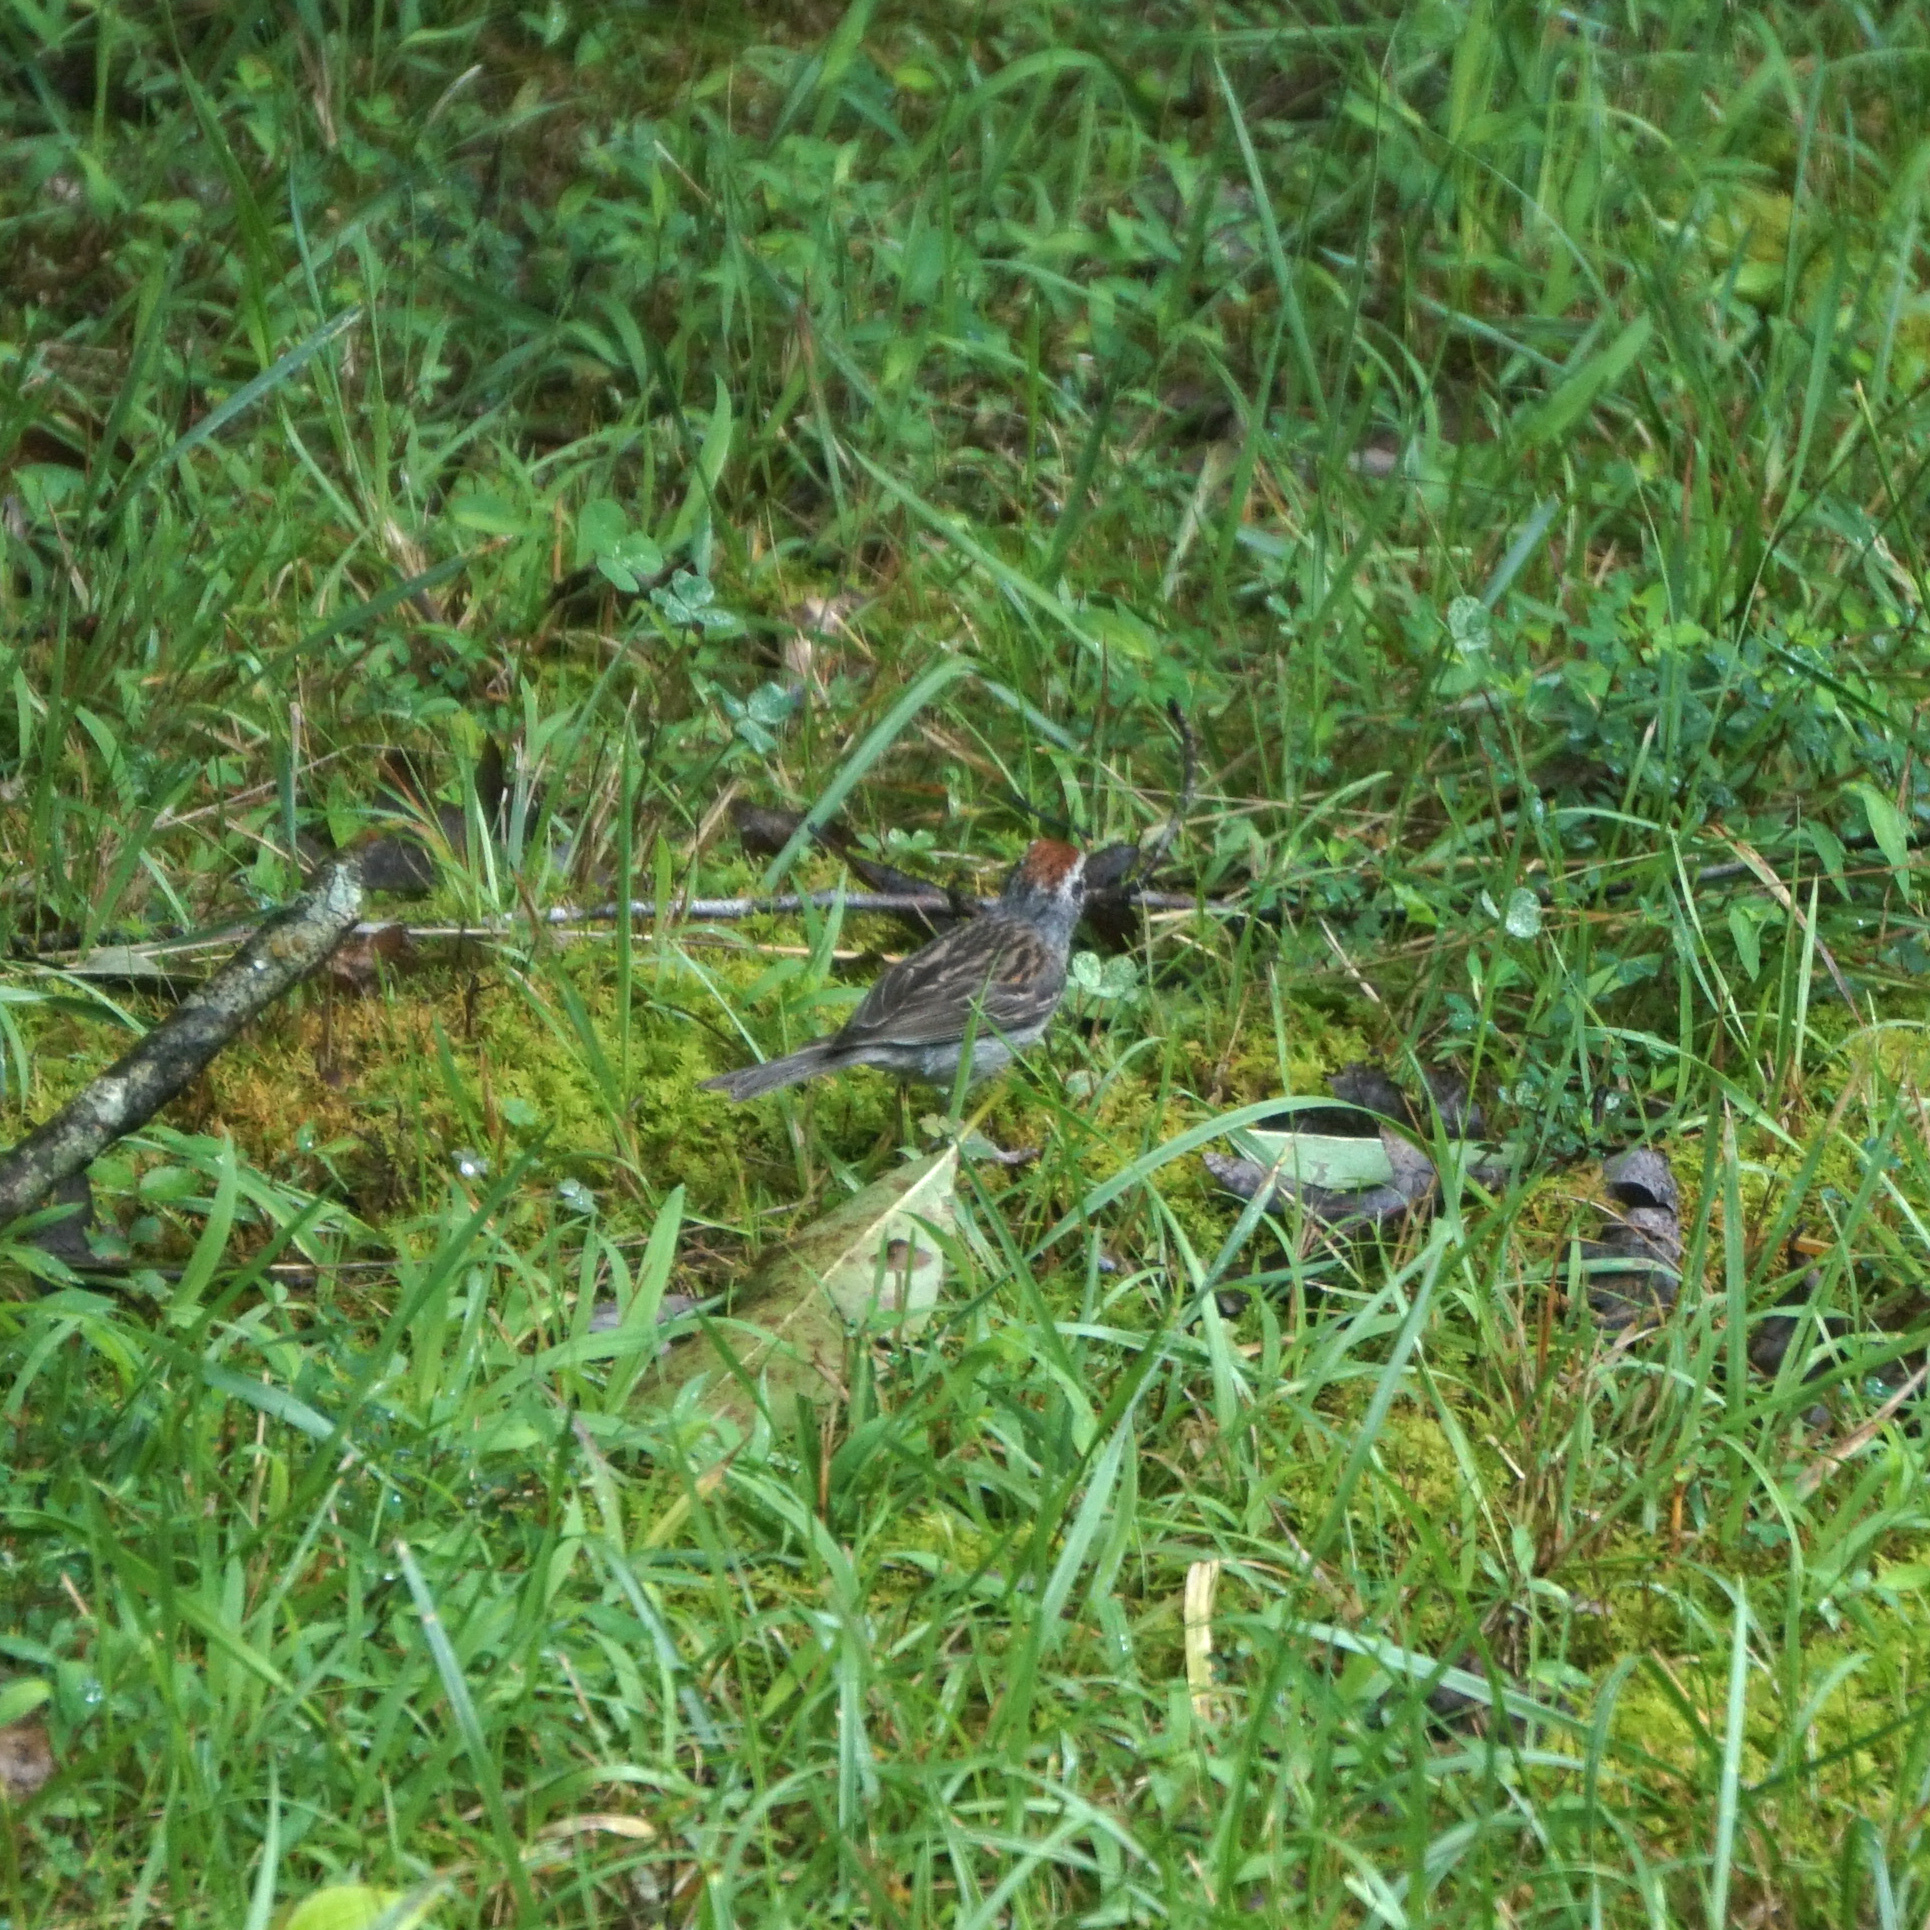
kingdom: Animalia
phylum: Chordata
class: Aves
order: Passeriformes
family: Passerellidae
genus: Spizella
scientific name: Spizella passerina
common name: Chipping sparrow
